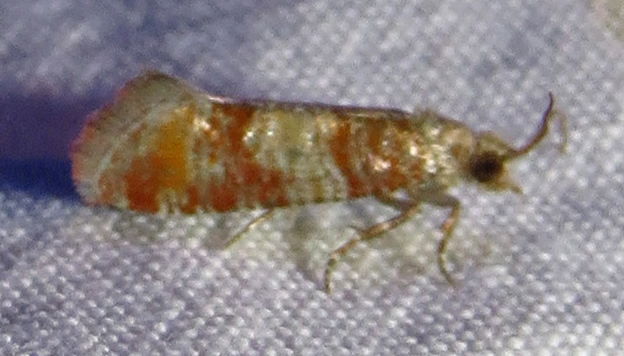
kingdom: Animalia
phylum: Arthropoda
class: Insecta
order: Lepidoptera
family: Tortricidae
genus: Rhyacionia
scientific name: Rhyacionia rigidana
